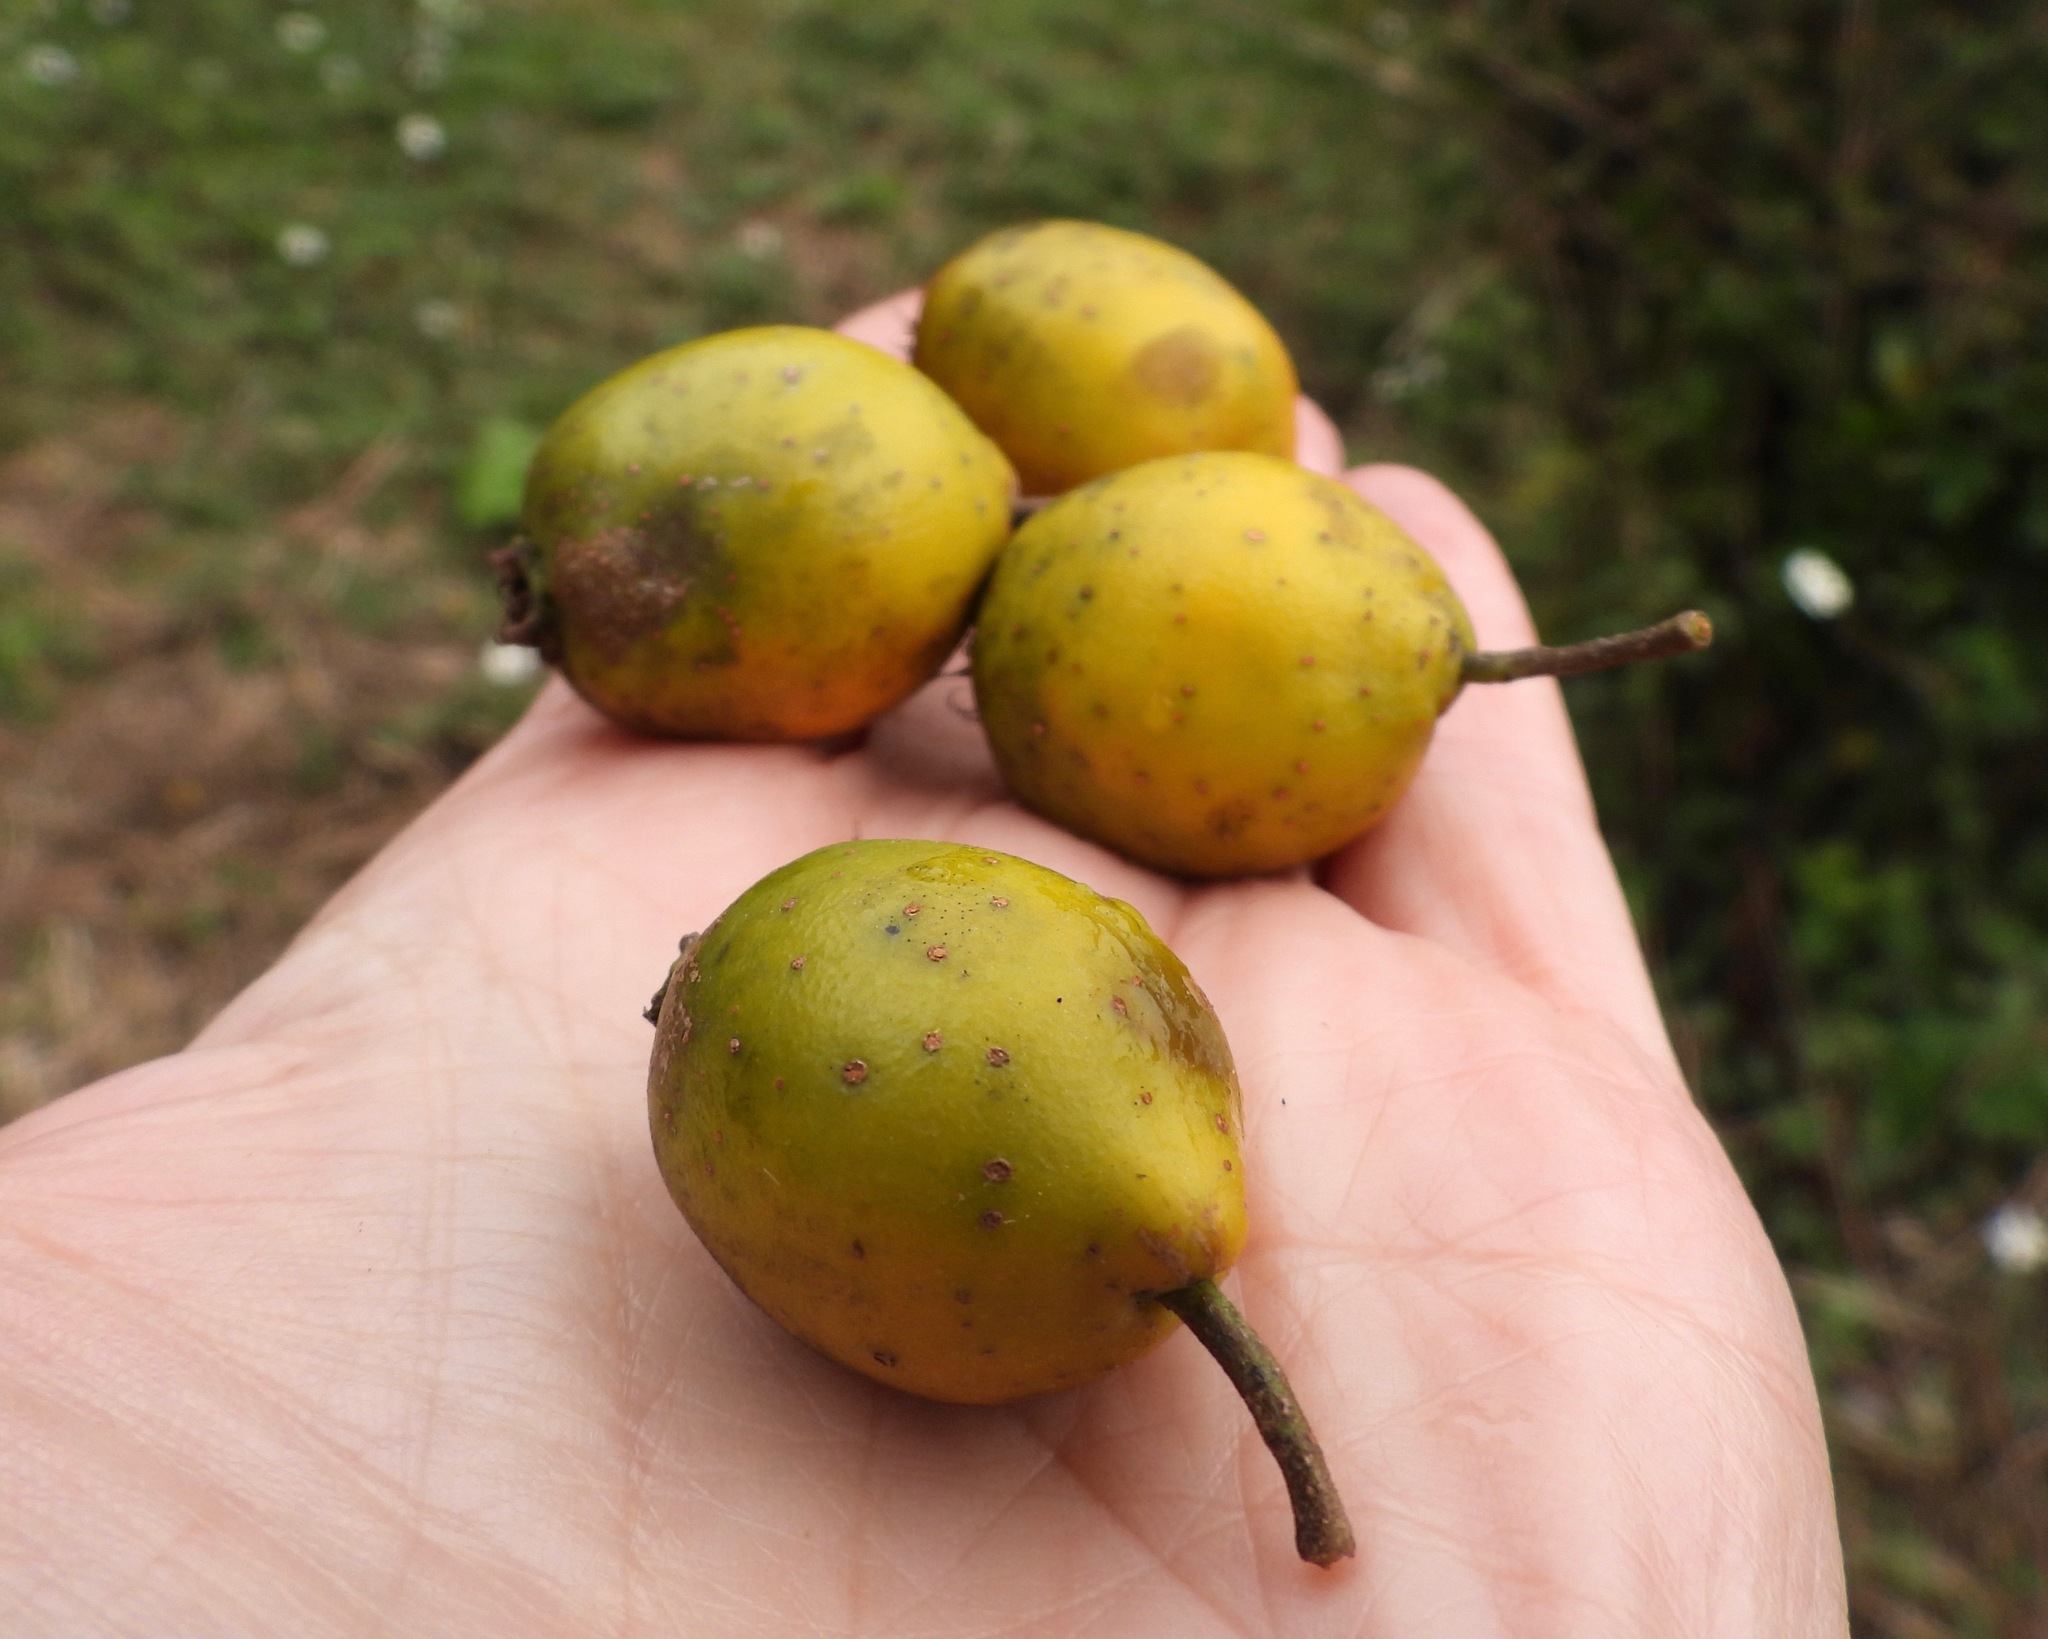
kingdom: Plantae
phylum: Tracheophyta
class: Magnoliopsida
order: Rosales
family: Rosaceae
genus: Crataegus
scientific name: Crataegus mexicana
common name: Mexican hawthorn
